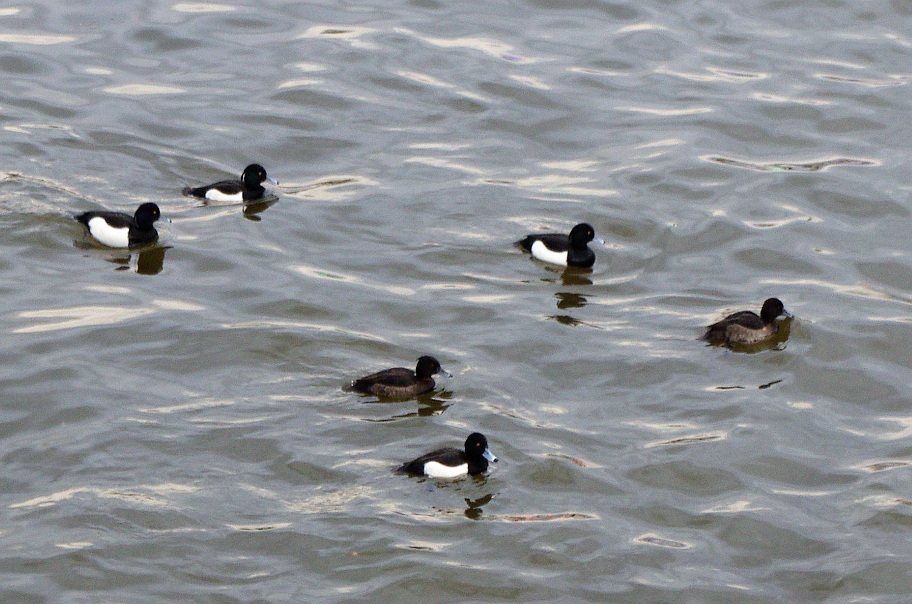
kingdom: Animalia
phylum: Chordata
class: Aves
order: Anseriformes
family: Anatidae
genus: Aythya
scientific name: Aythya fuligula
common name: Tufted duck
